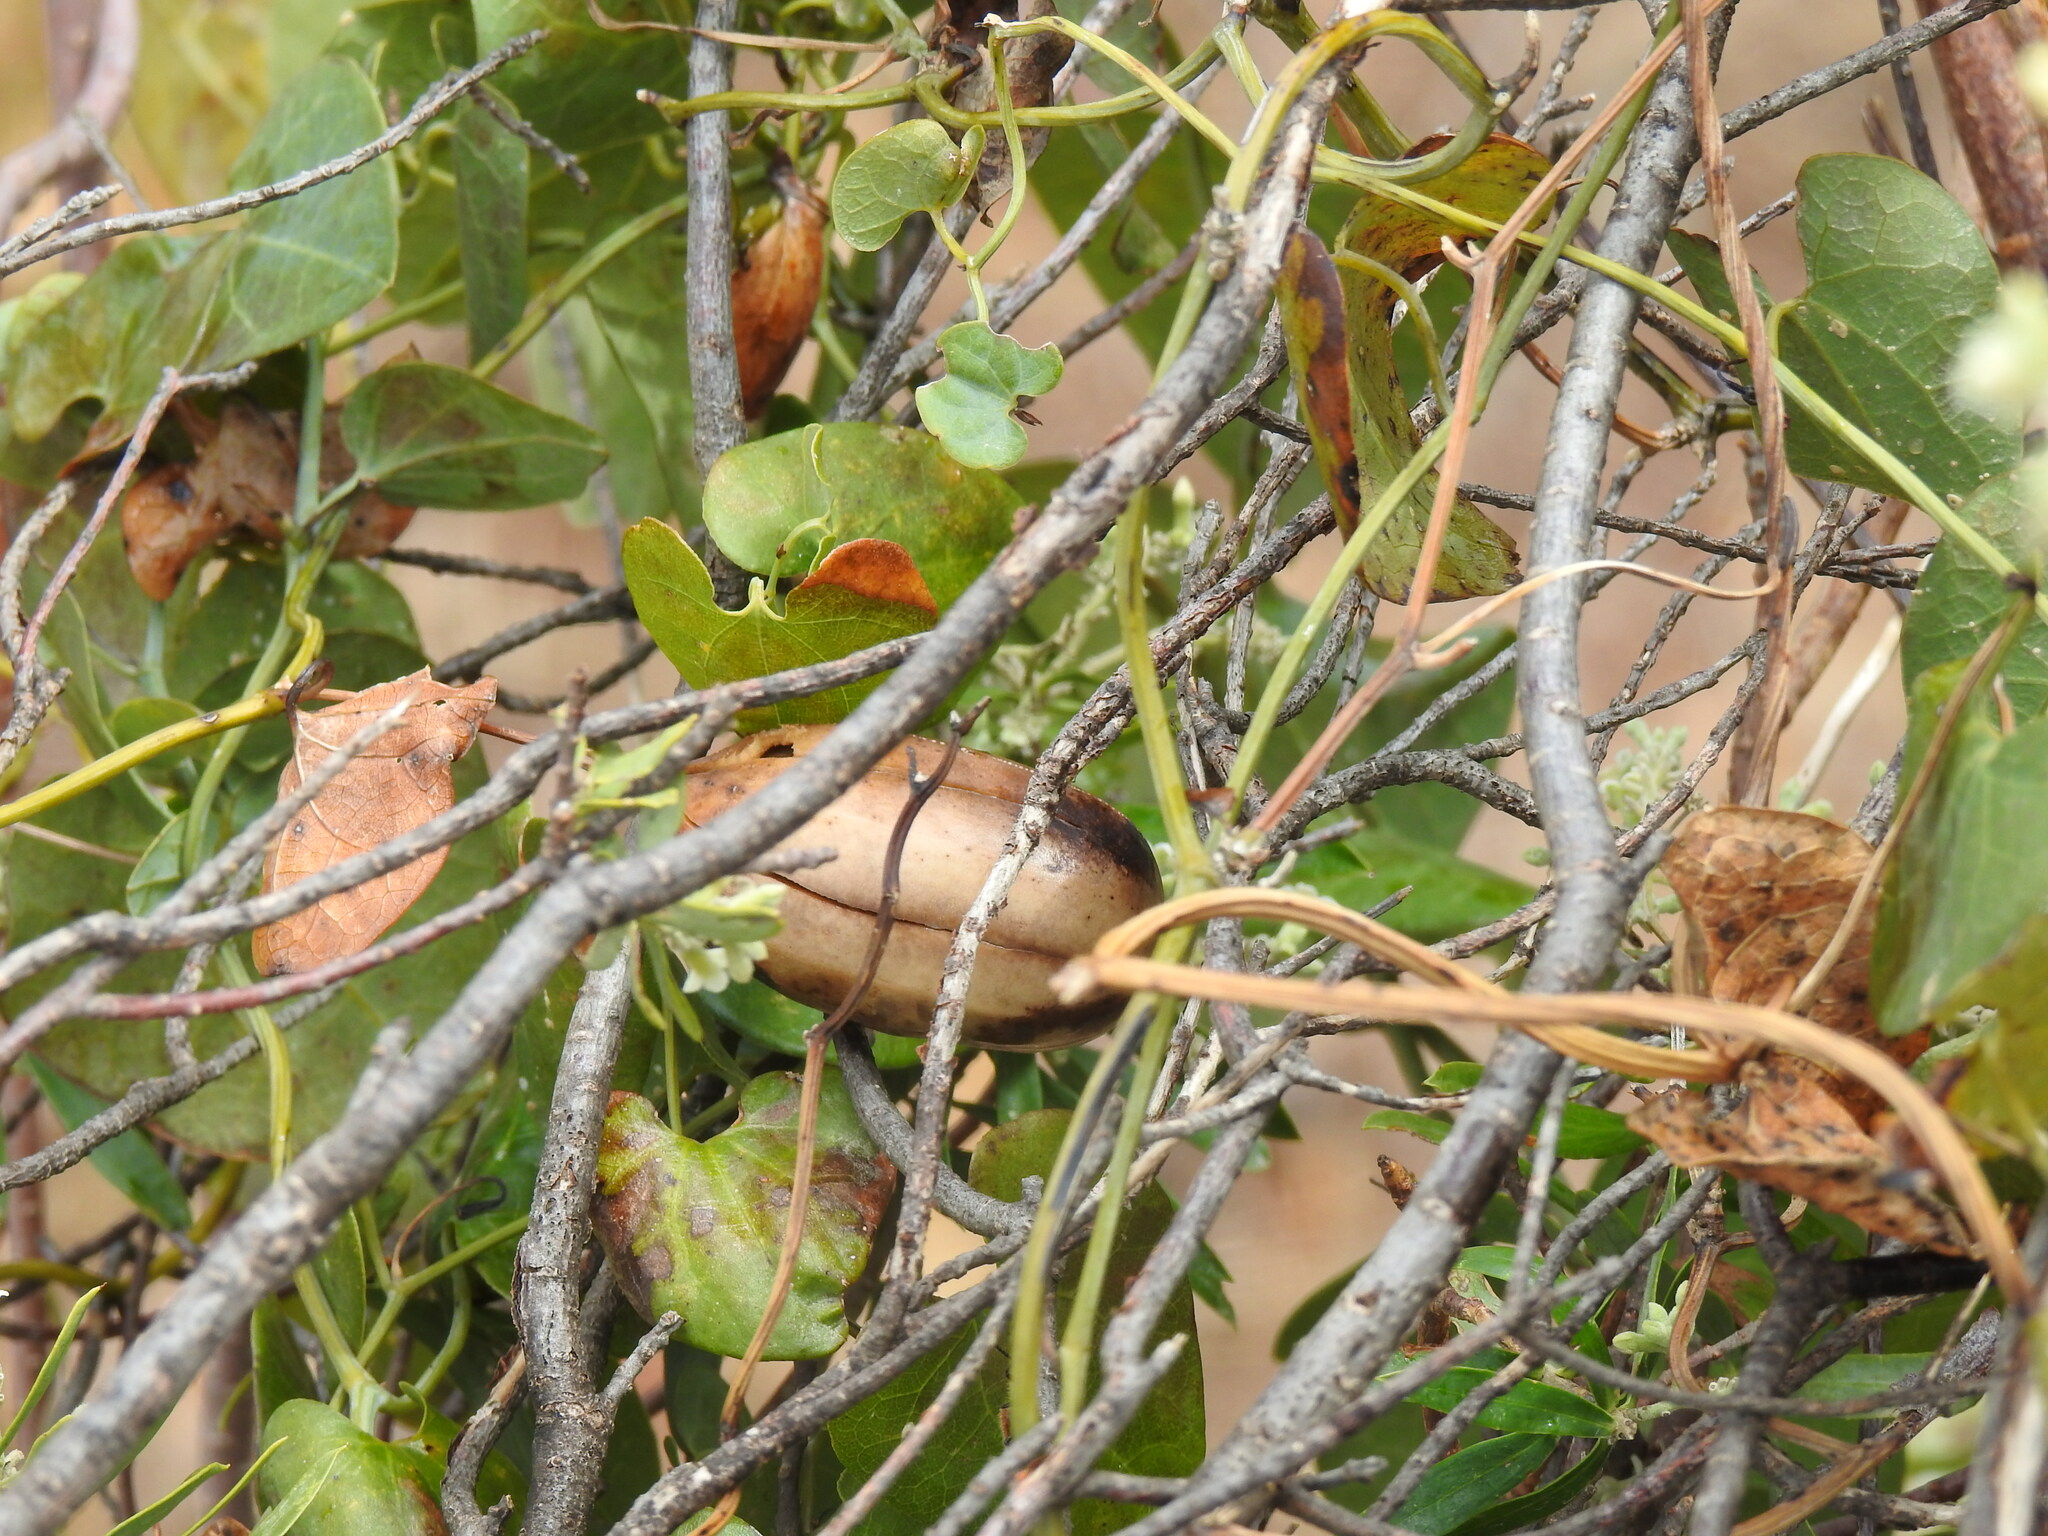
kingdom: Plantae
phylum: Tracheophyta
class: Magnoliopsida
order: Piperales
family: Aristolochiaceae
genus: Aristolochia
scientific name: Aristolochia baetica
